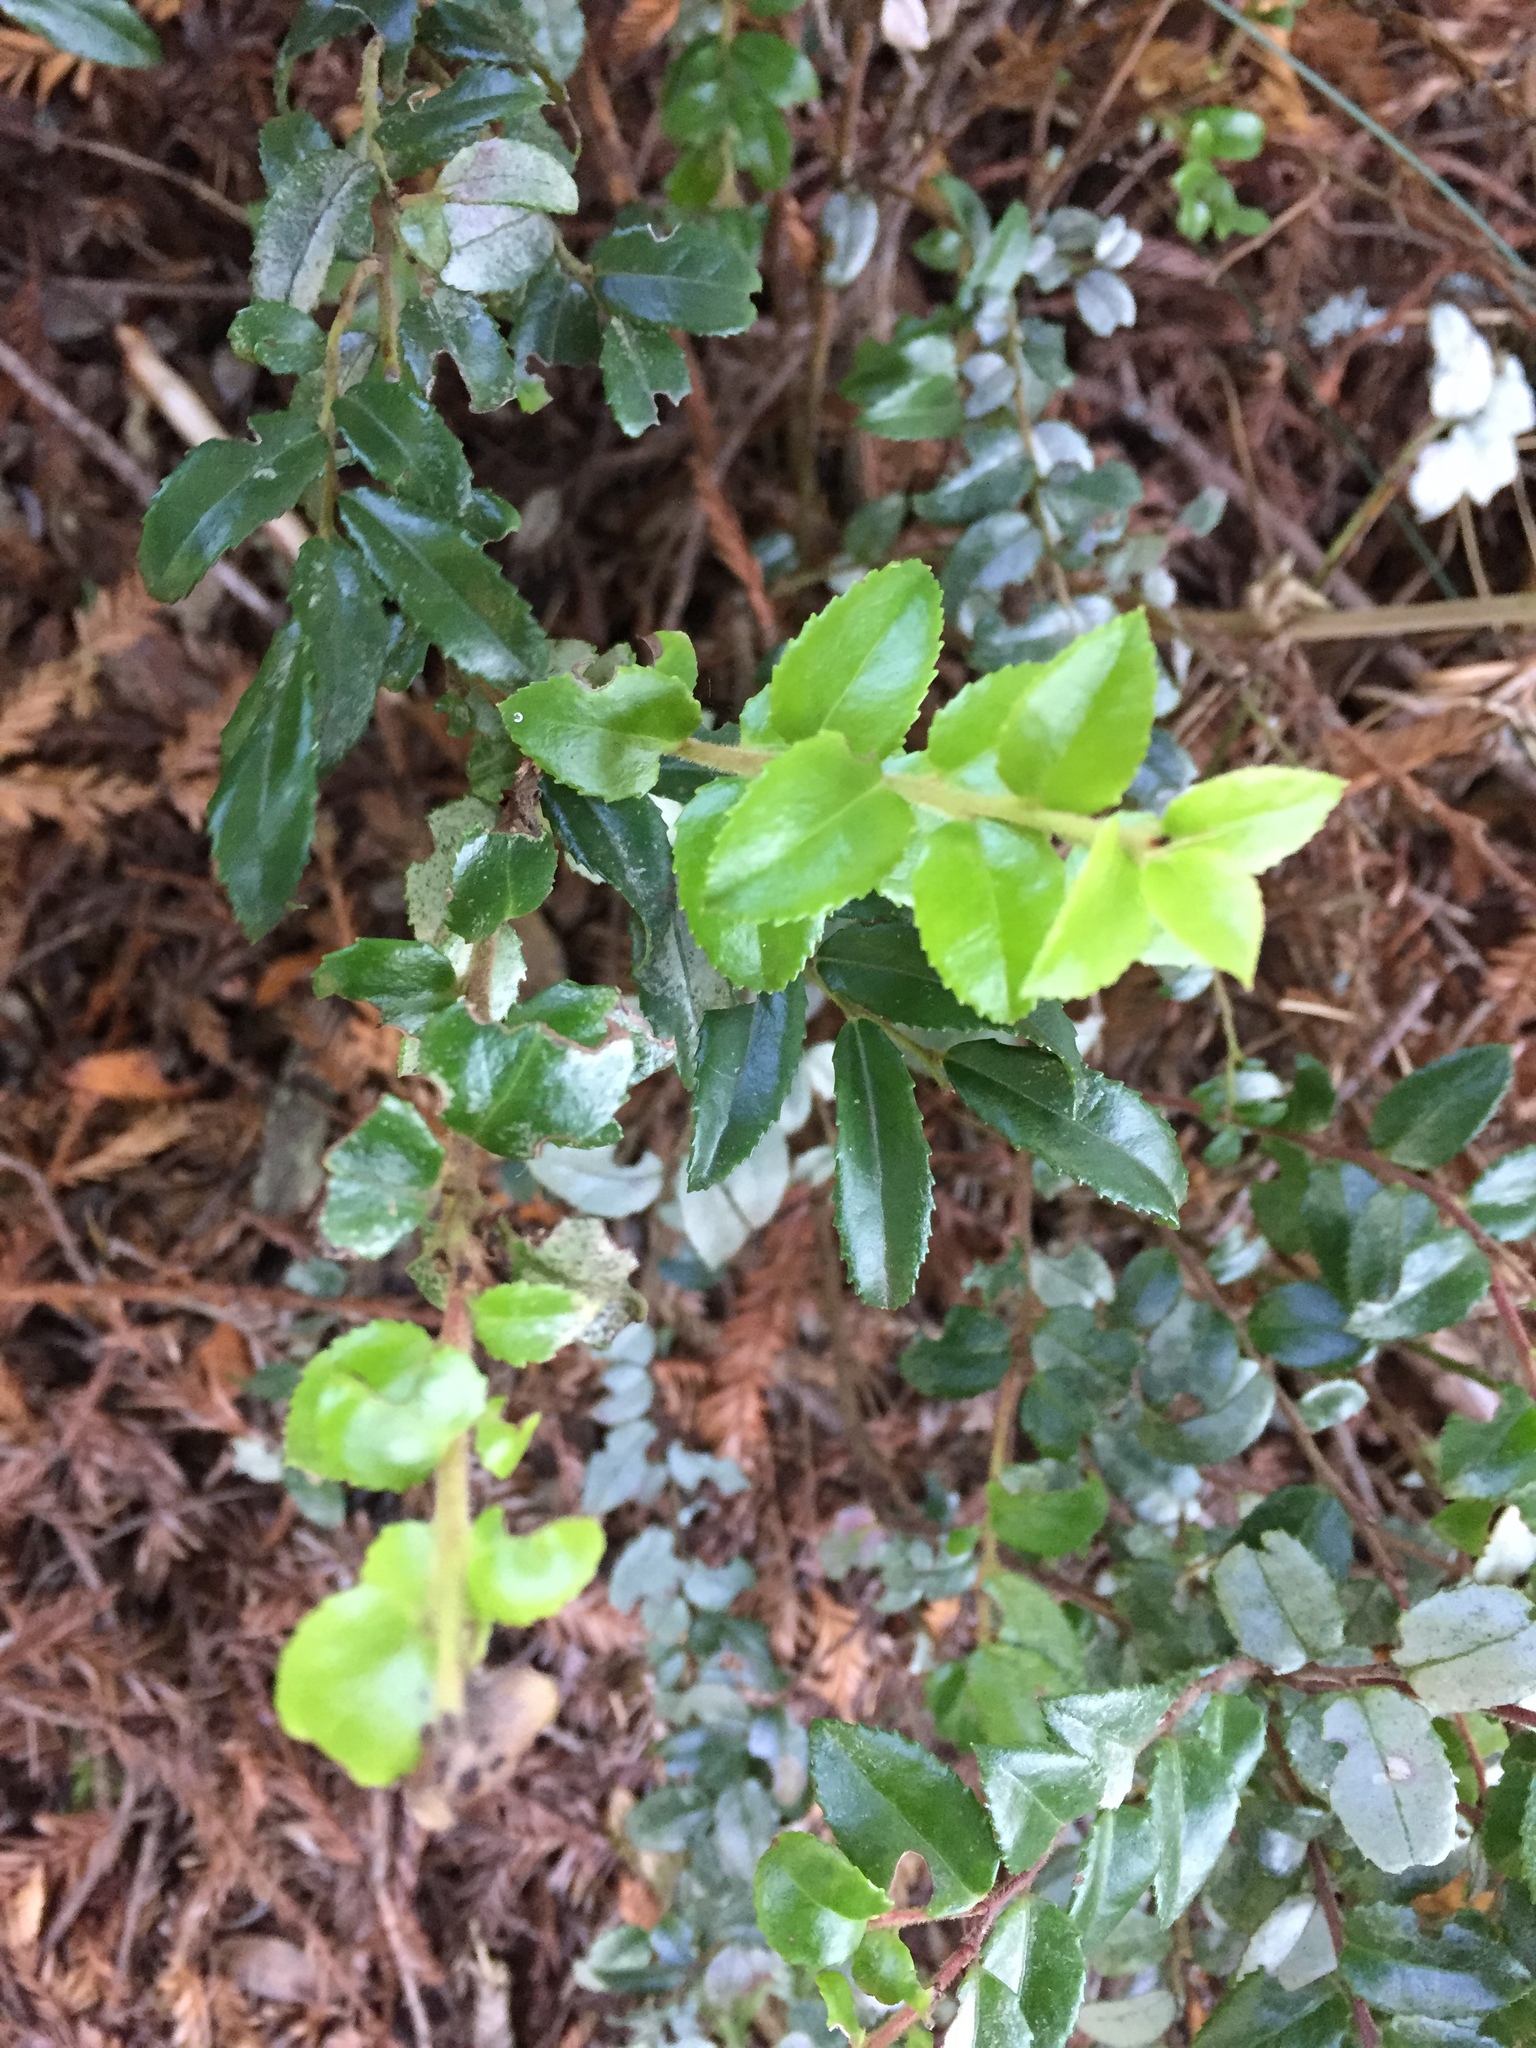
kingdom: Plantae
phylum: Tracheophyta
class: Magnoliopsida
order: Ericales
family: Ericaceae
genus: Vaccinium
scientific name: Vaccinium ovatum
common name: California-huckleberry
